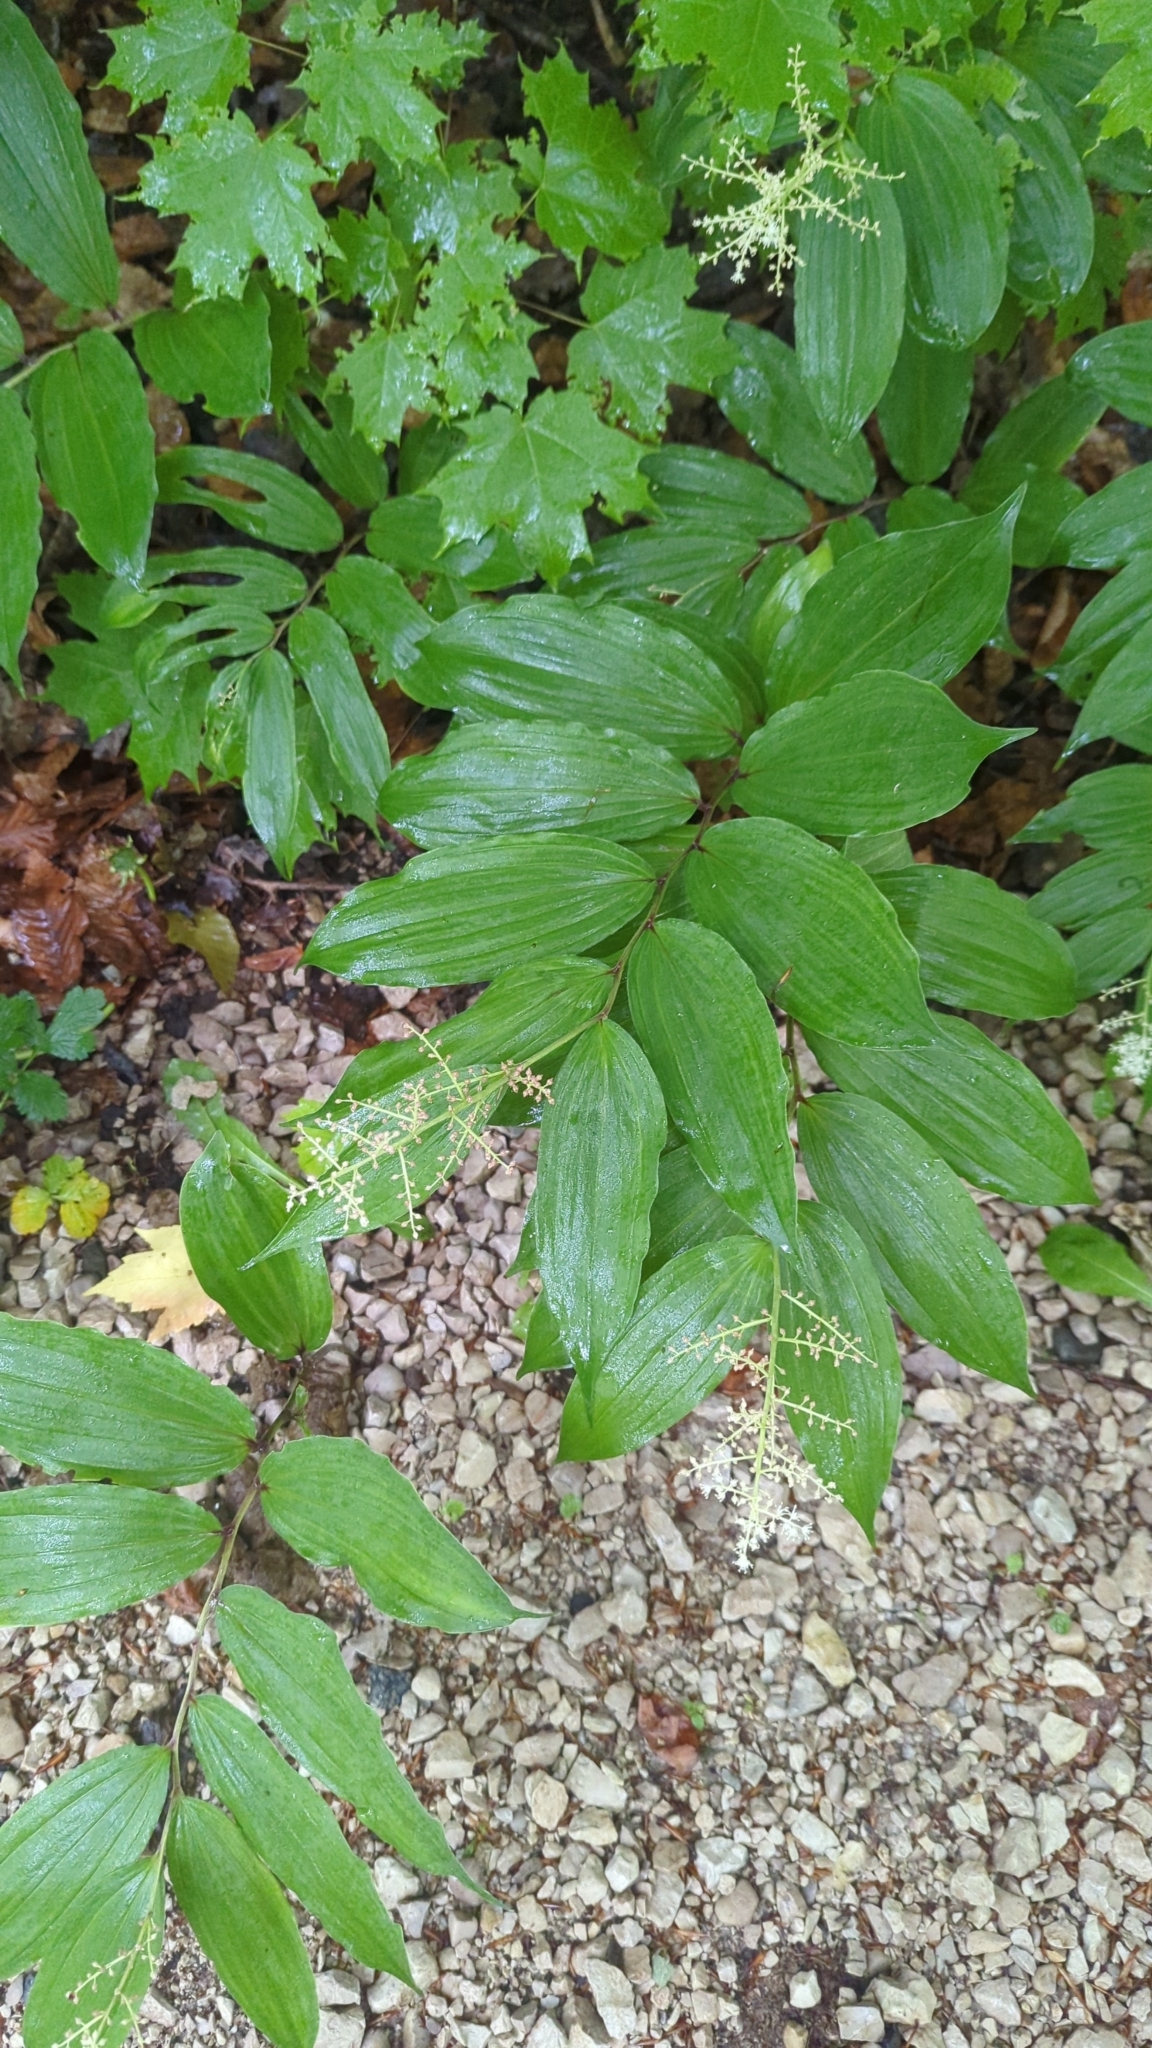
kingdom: Plantae
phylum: Tracheophyta
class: Liliopsida
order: Asparagales
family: Asparagaceae
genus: Maianthemum
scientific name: Maianthemum racemosum
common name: False spikenard
